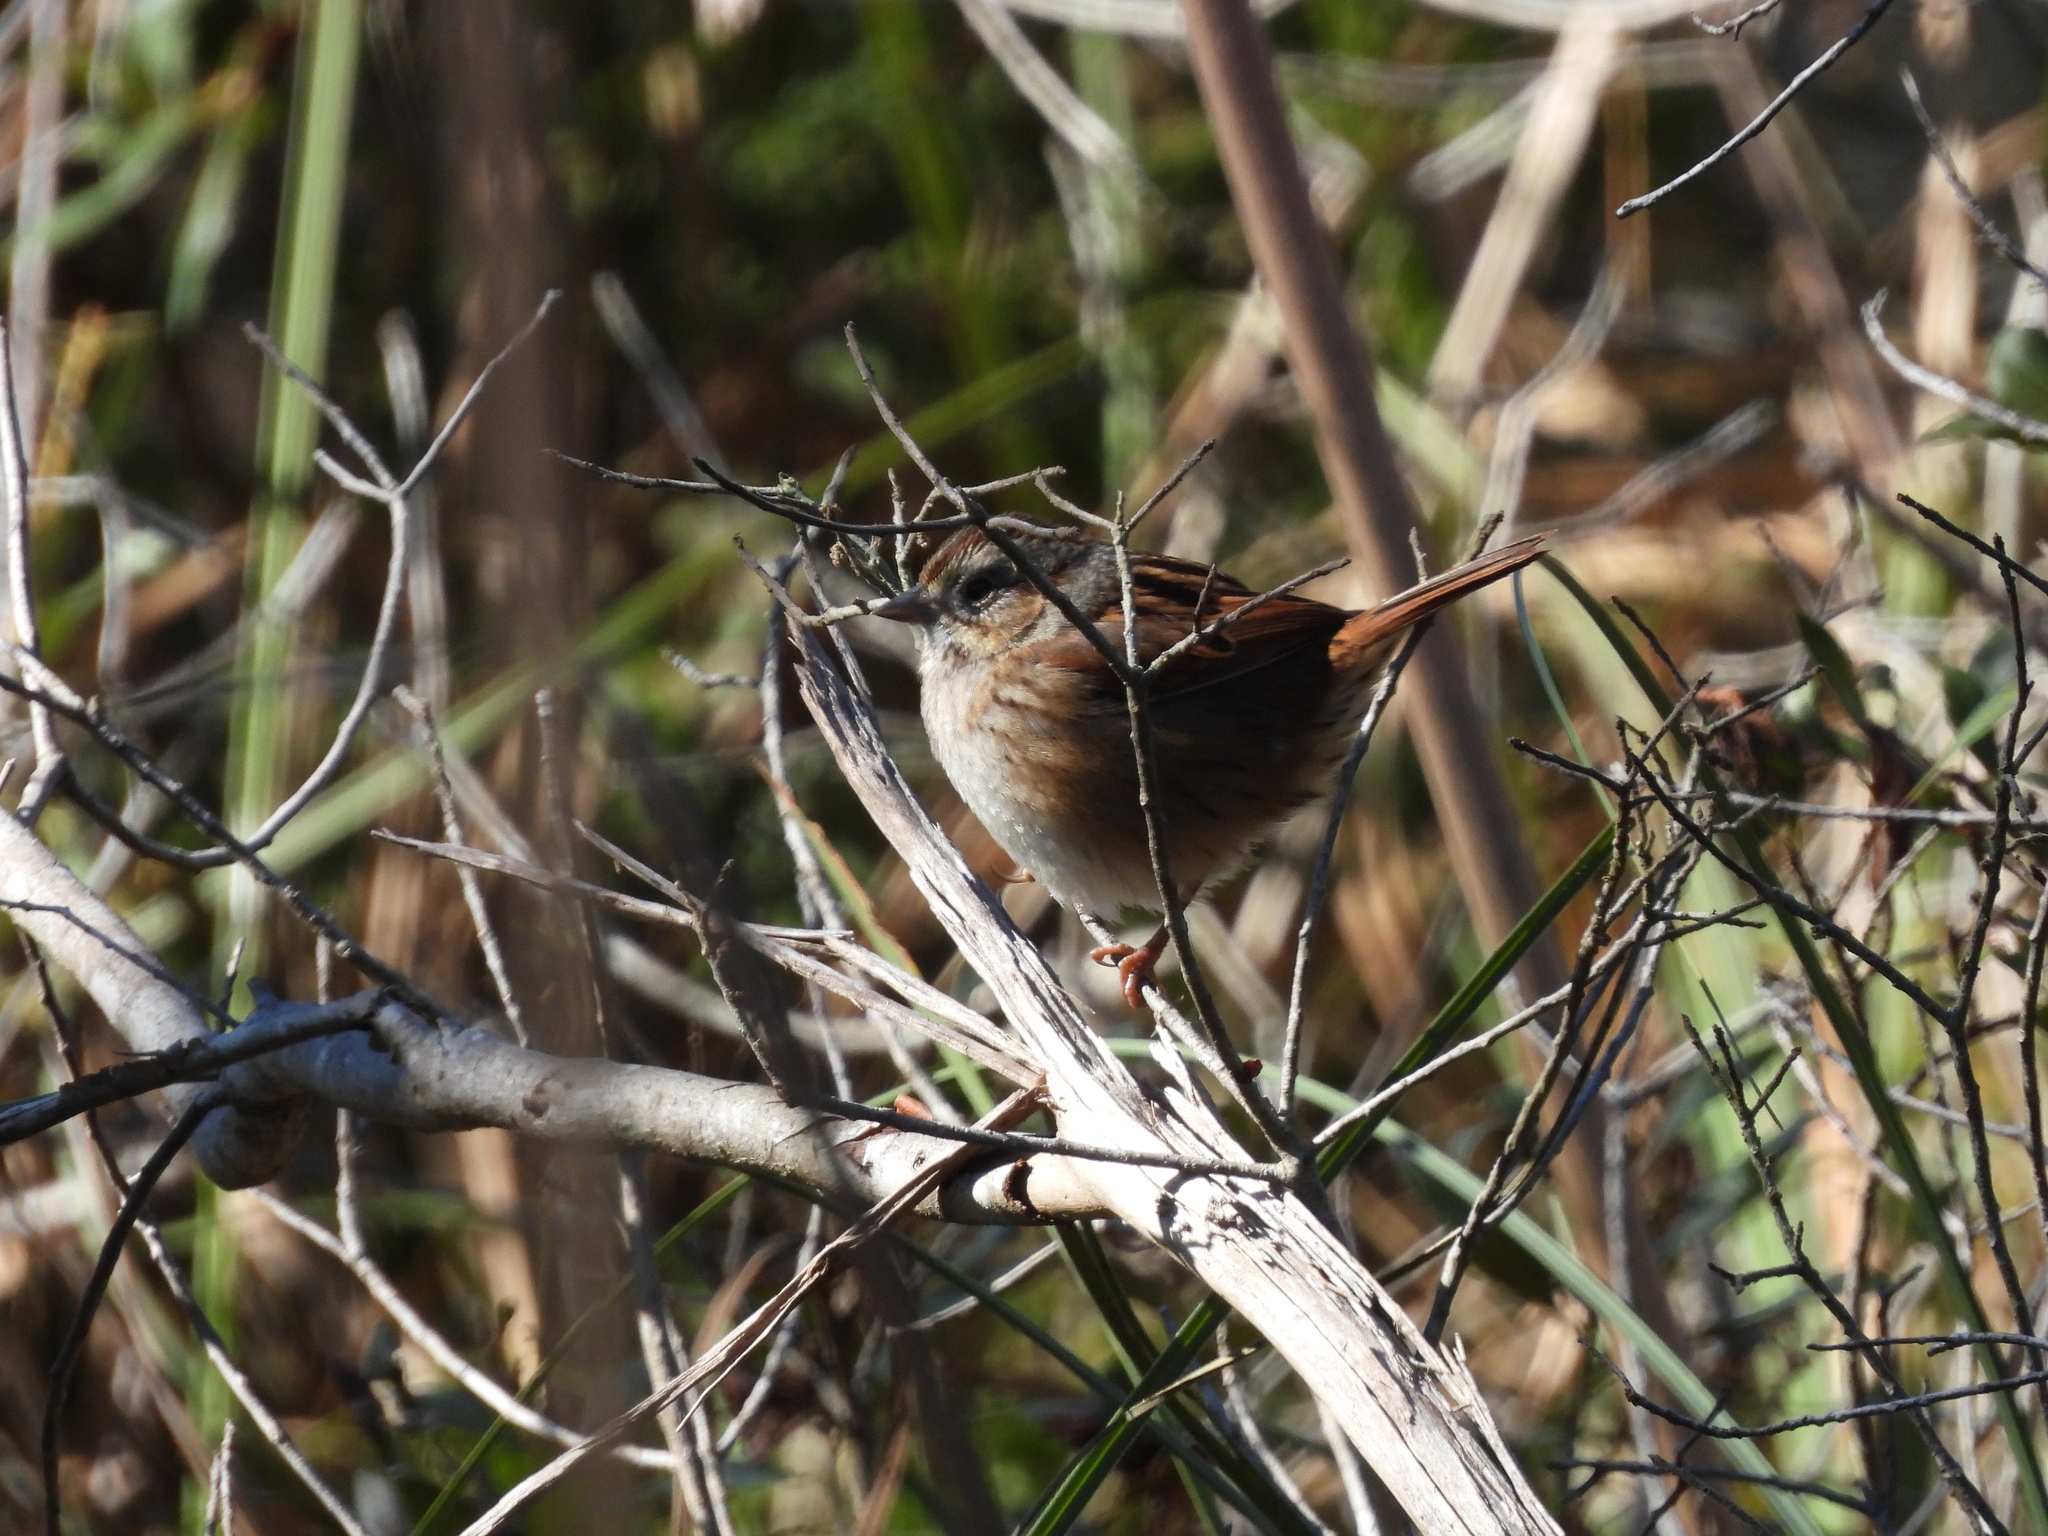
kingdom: Animalia
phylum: Chordata
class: Aves
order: Passeriformes
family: Passerellidae
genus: Melospiza
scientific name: Melospiza georgiana
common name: Swamp sparrow
